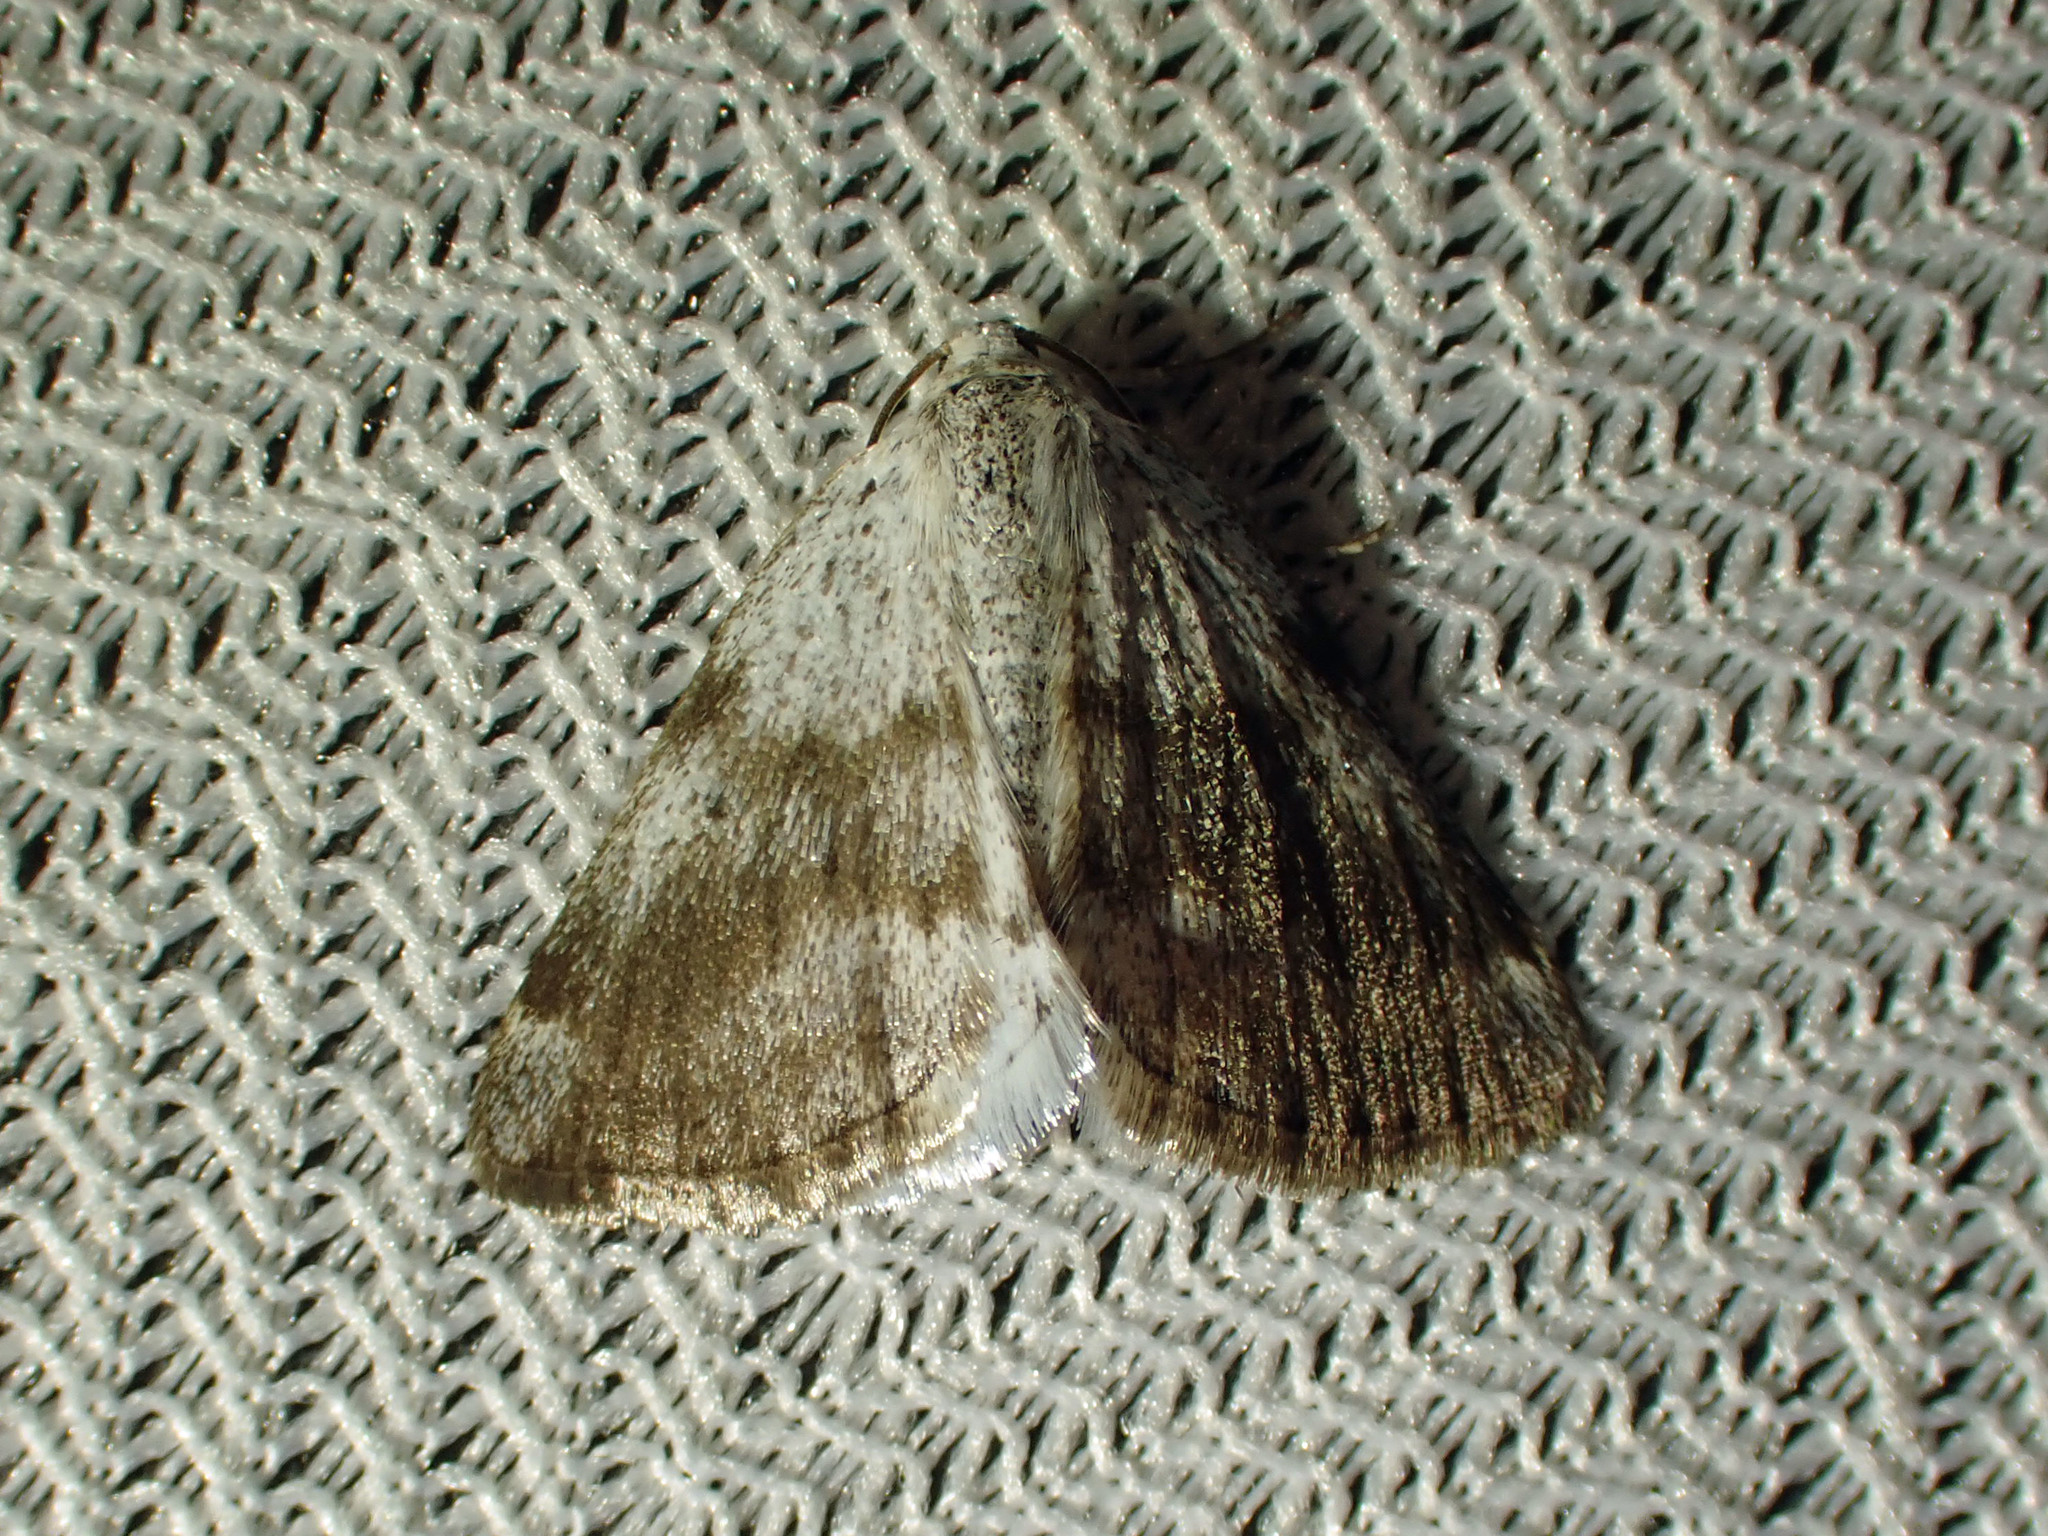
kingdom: Animalia
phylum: Arthropoda
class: Insecta
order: Lepidoptera
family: Geometridae
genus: Lomographa
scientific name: Lomographa semiclarata
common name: Bluish spring moth
